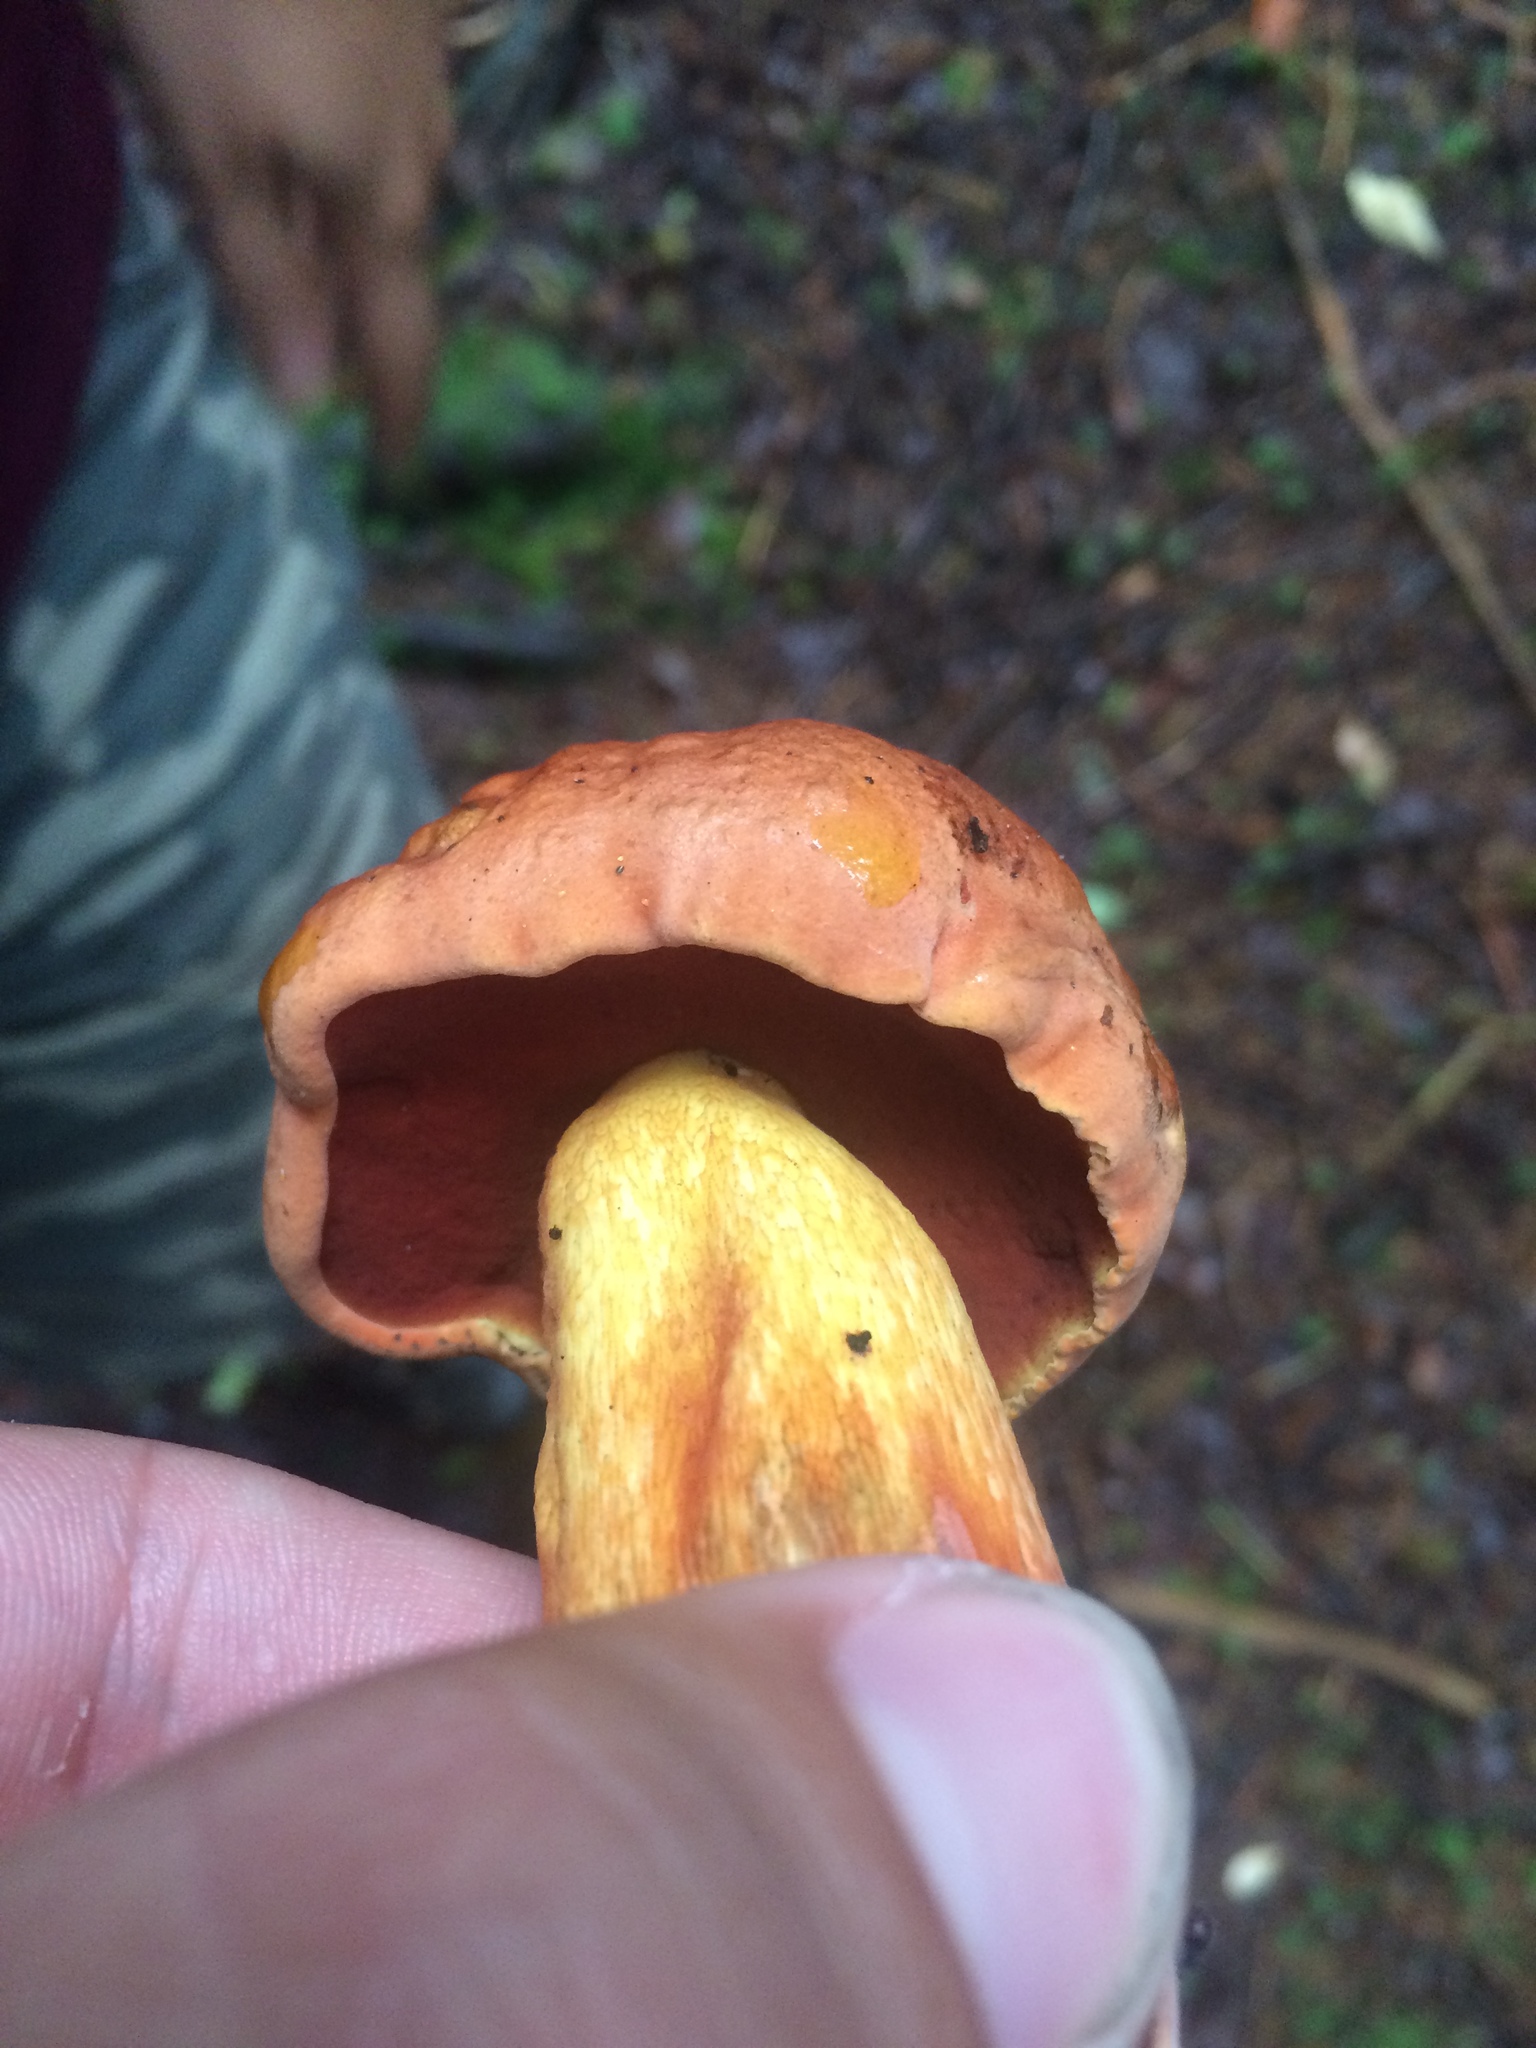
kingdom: Fungi
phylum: Basidiomycota
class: Agaricomycetes
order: Boletales
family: Boletaceae
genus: Boletus
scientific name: Boletus subvelutipes
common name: Red-mouth bolete
